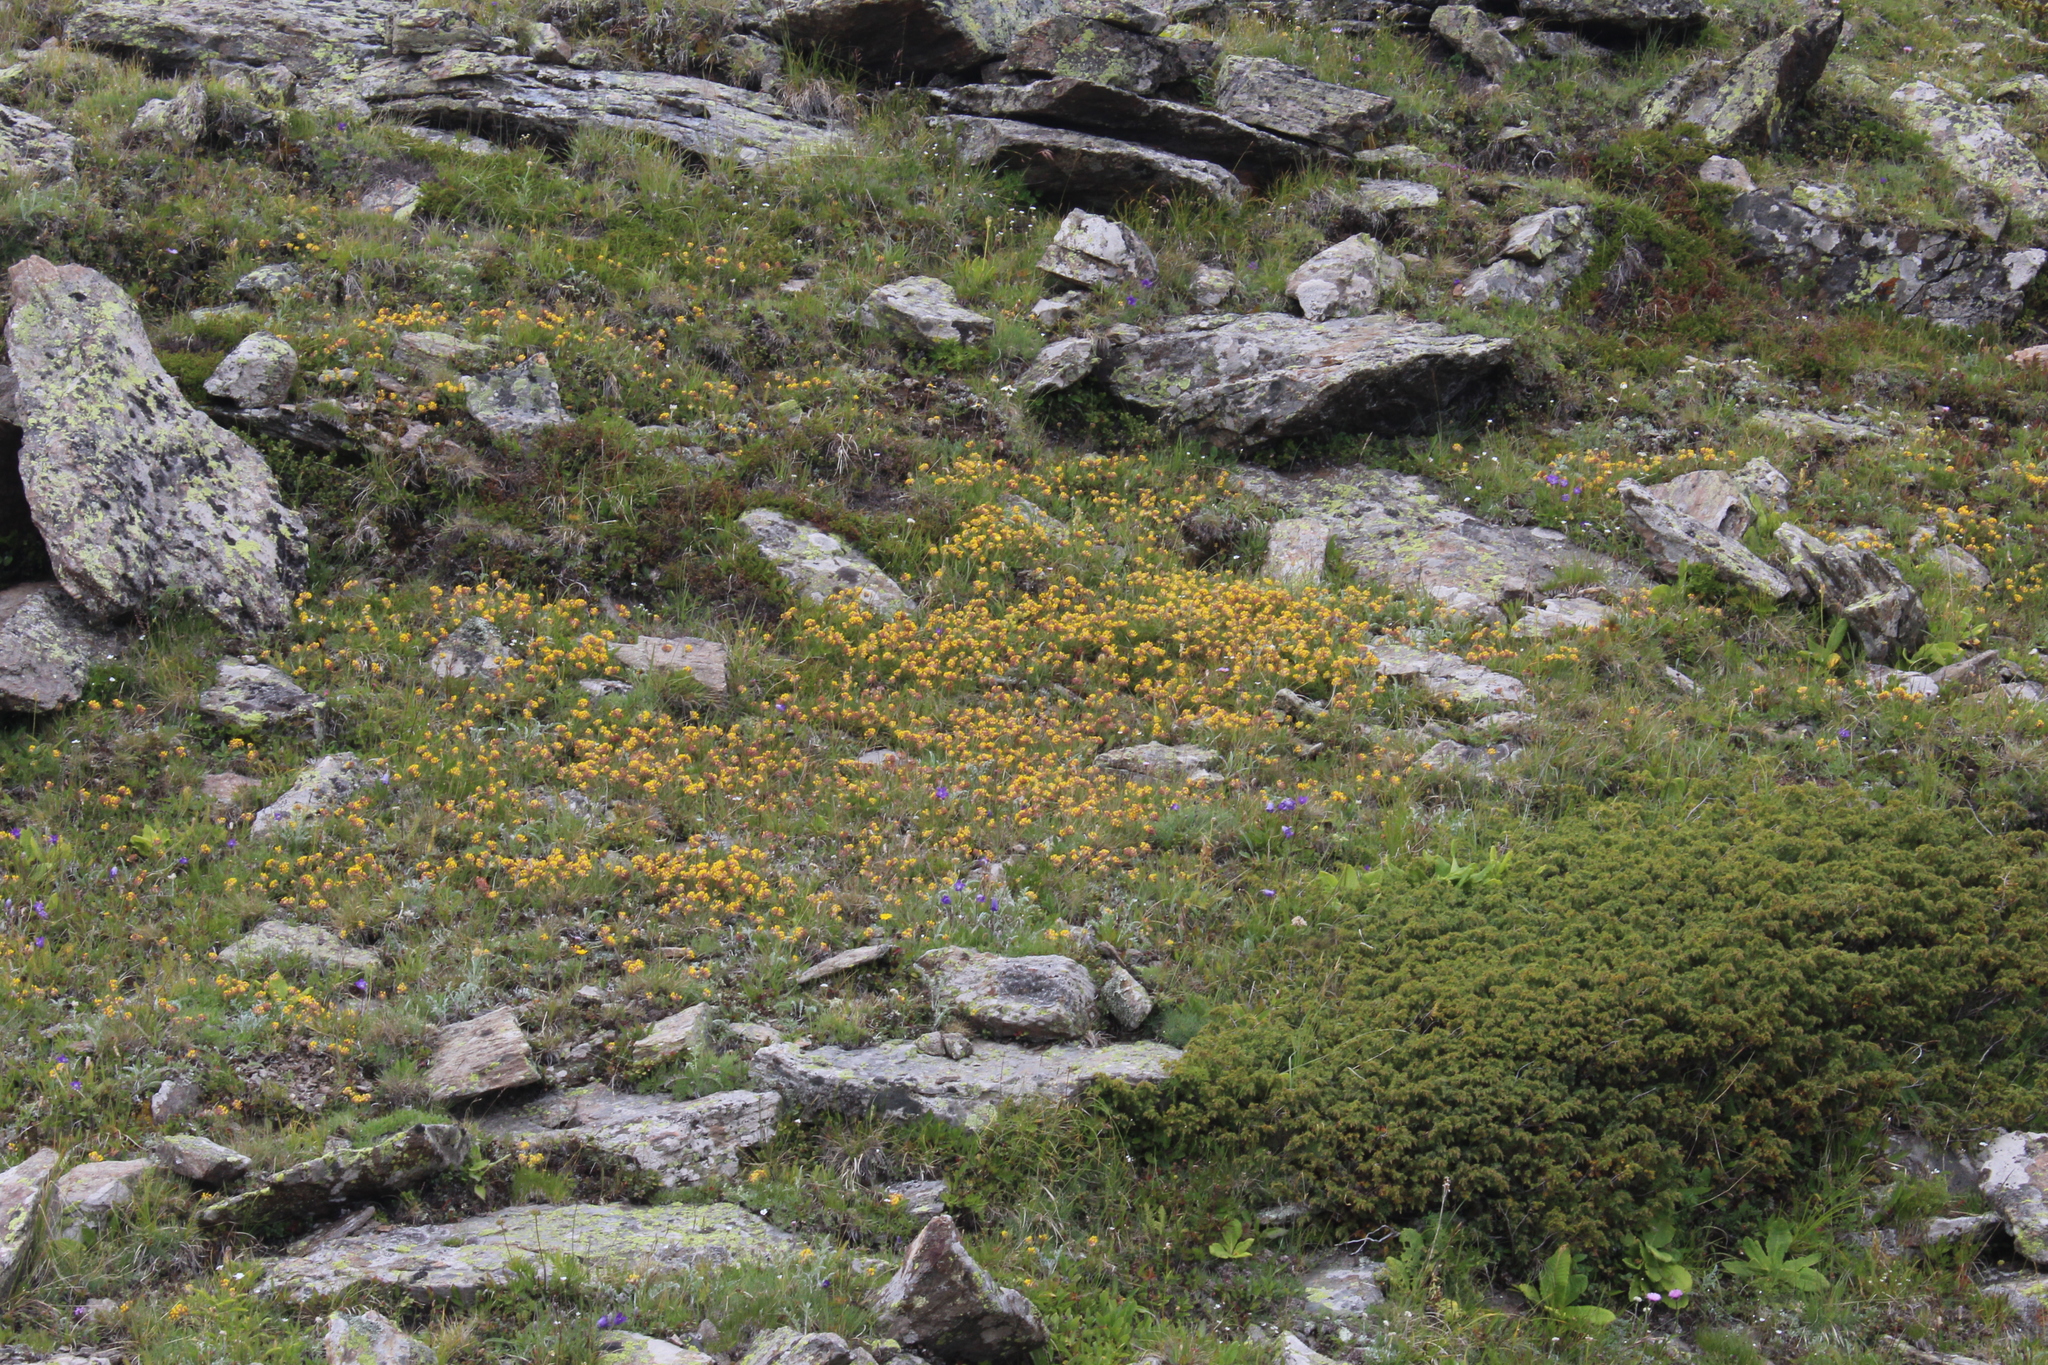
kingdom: Plantae
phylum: Tracheophyta
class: Magnoliopsida
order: Fabales
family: Fabaceae
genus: Anthyllis
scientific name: Anthyllis vulneraria
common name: Kidney vetch
